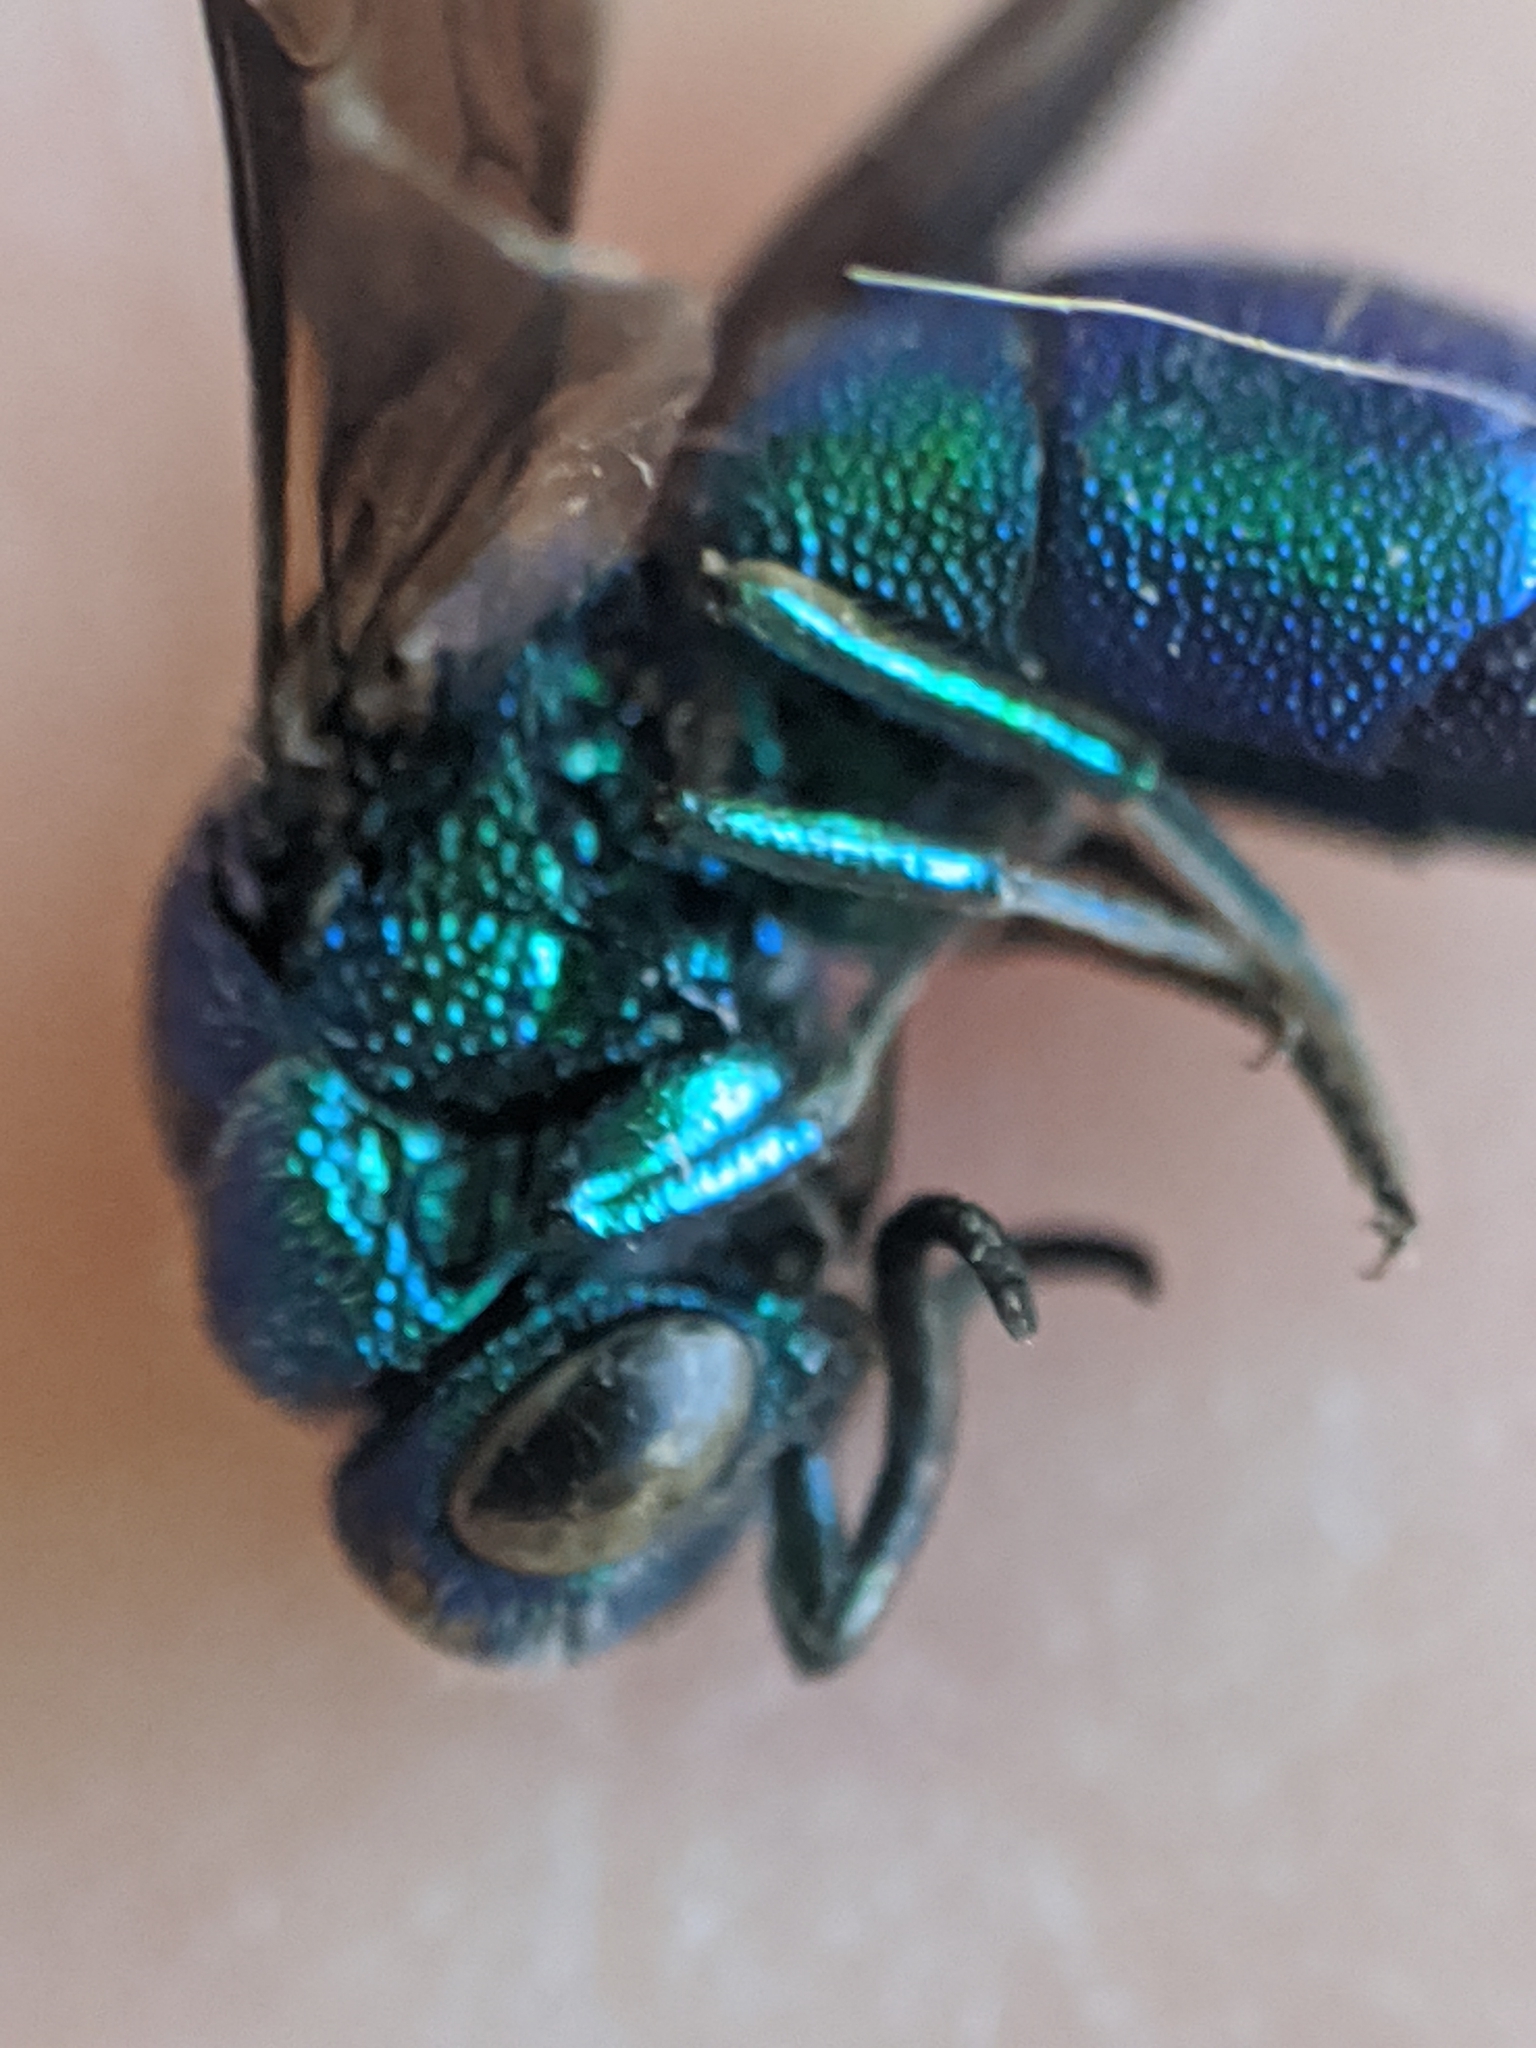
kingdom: Animalia
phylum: Arthropoda
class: Insecta
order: Hymenoptera
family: Chrysididae
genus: Chrysis
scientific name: Chrysis angolensis
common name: Cuckoo wasp
